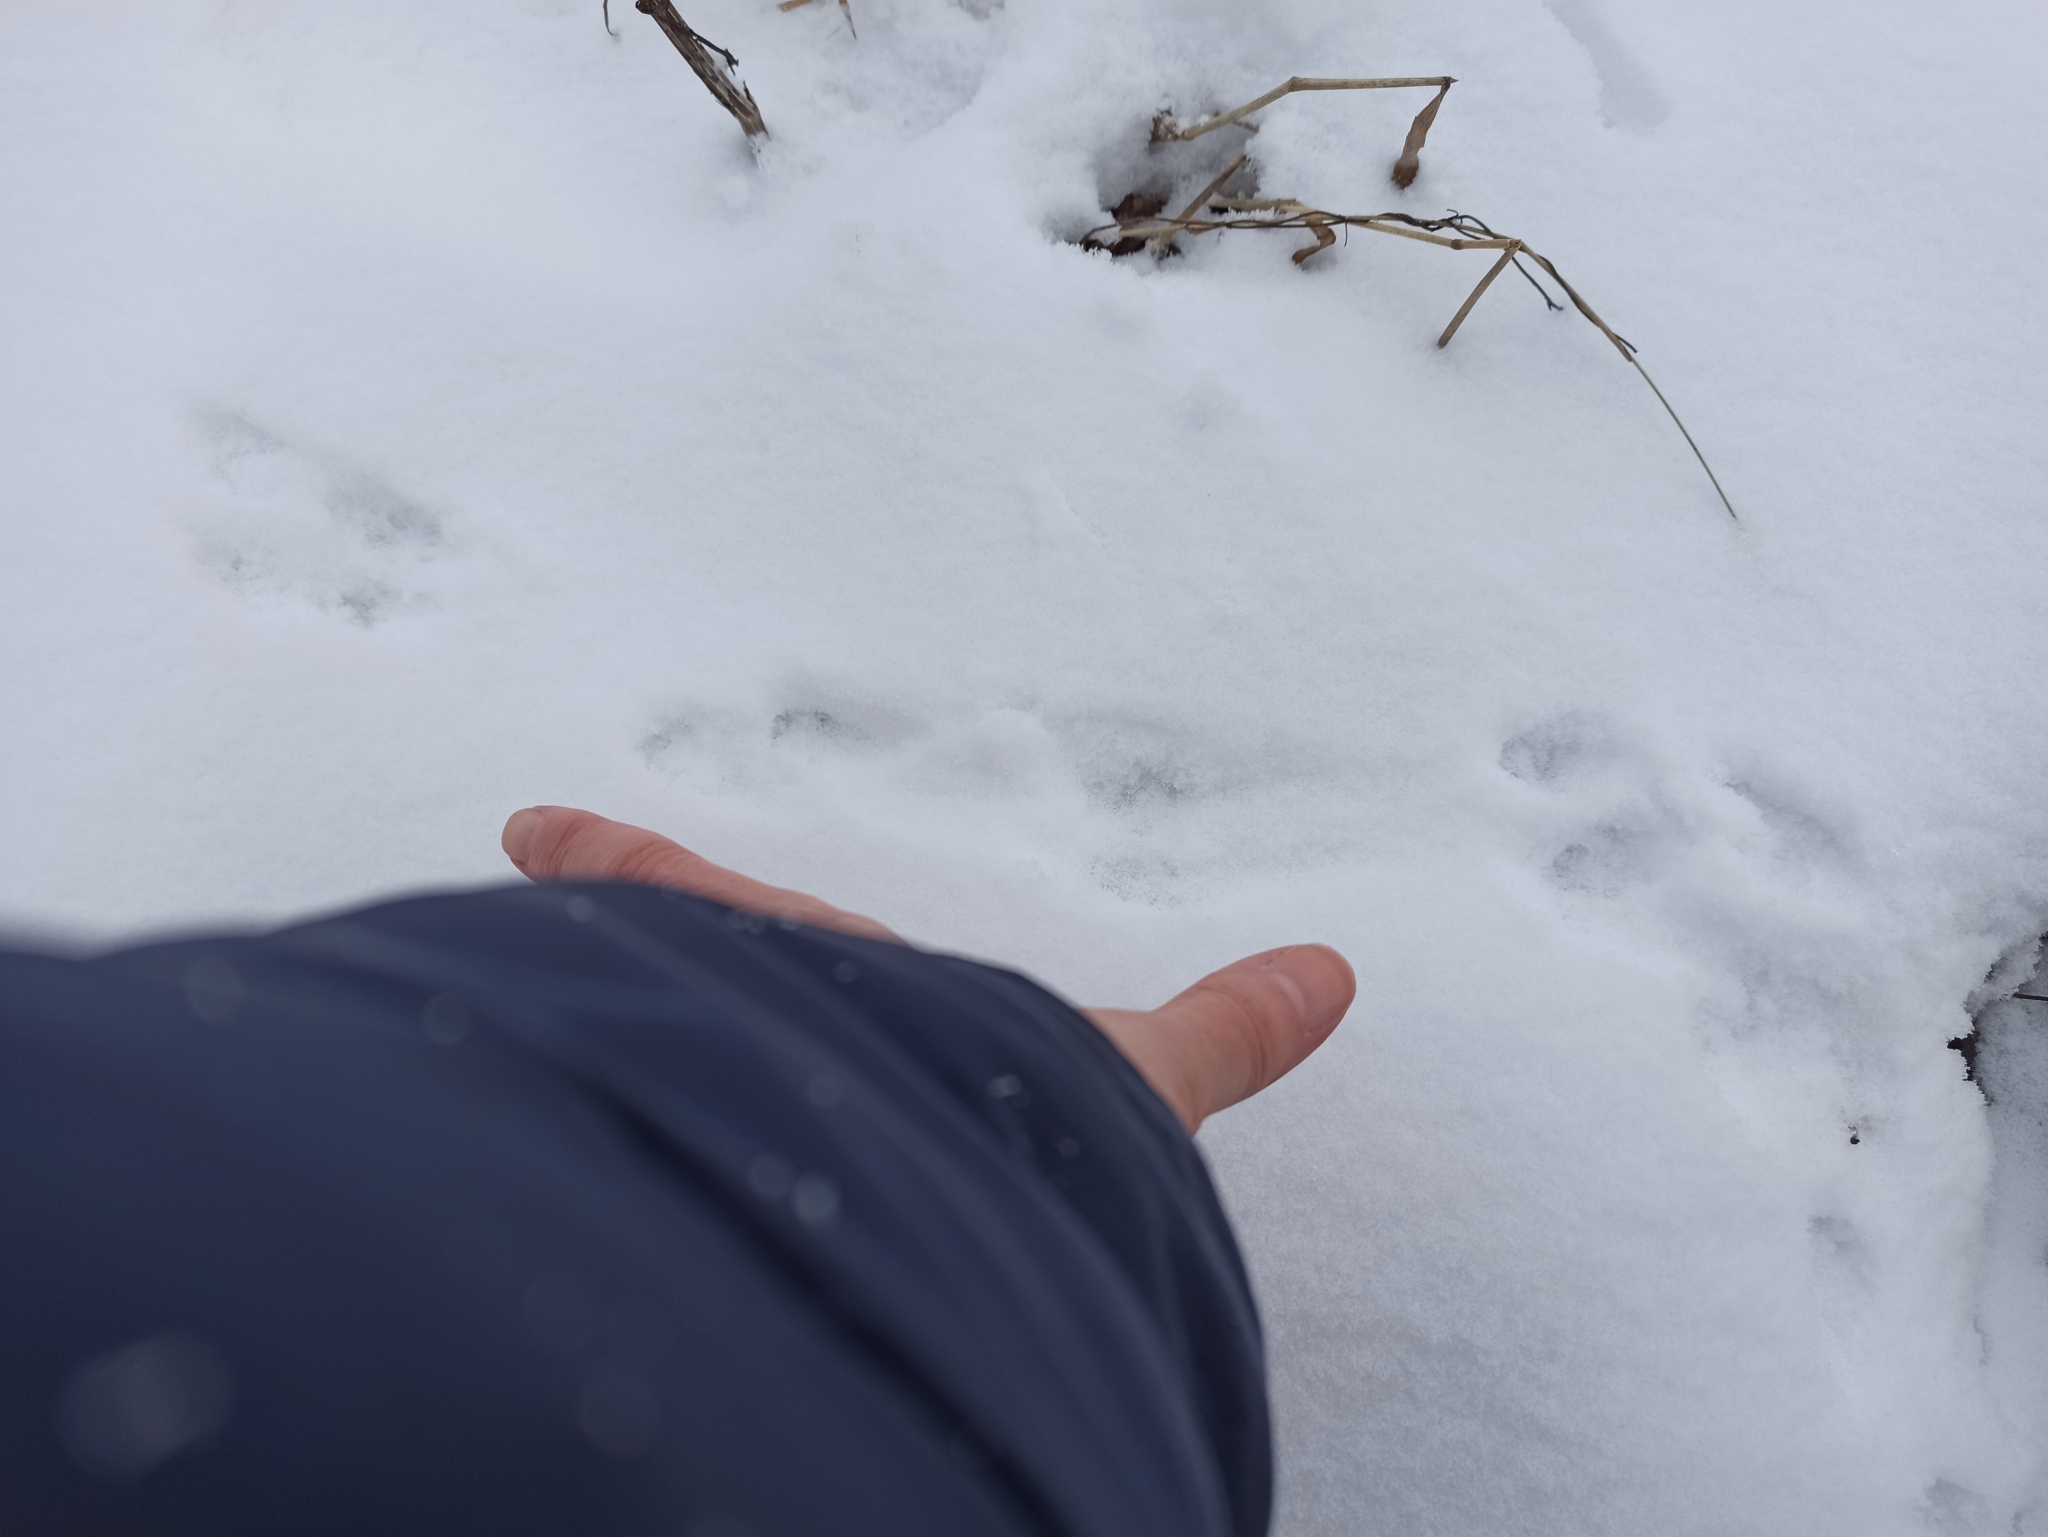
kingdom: Animalia
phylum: Chordata
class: Mammalia
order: Carnivora
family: Mustelidae
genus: Mustela
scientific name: Mustela nivalis
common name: Least weasel
